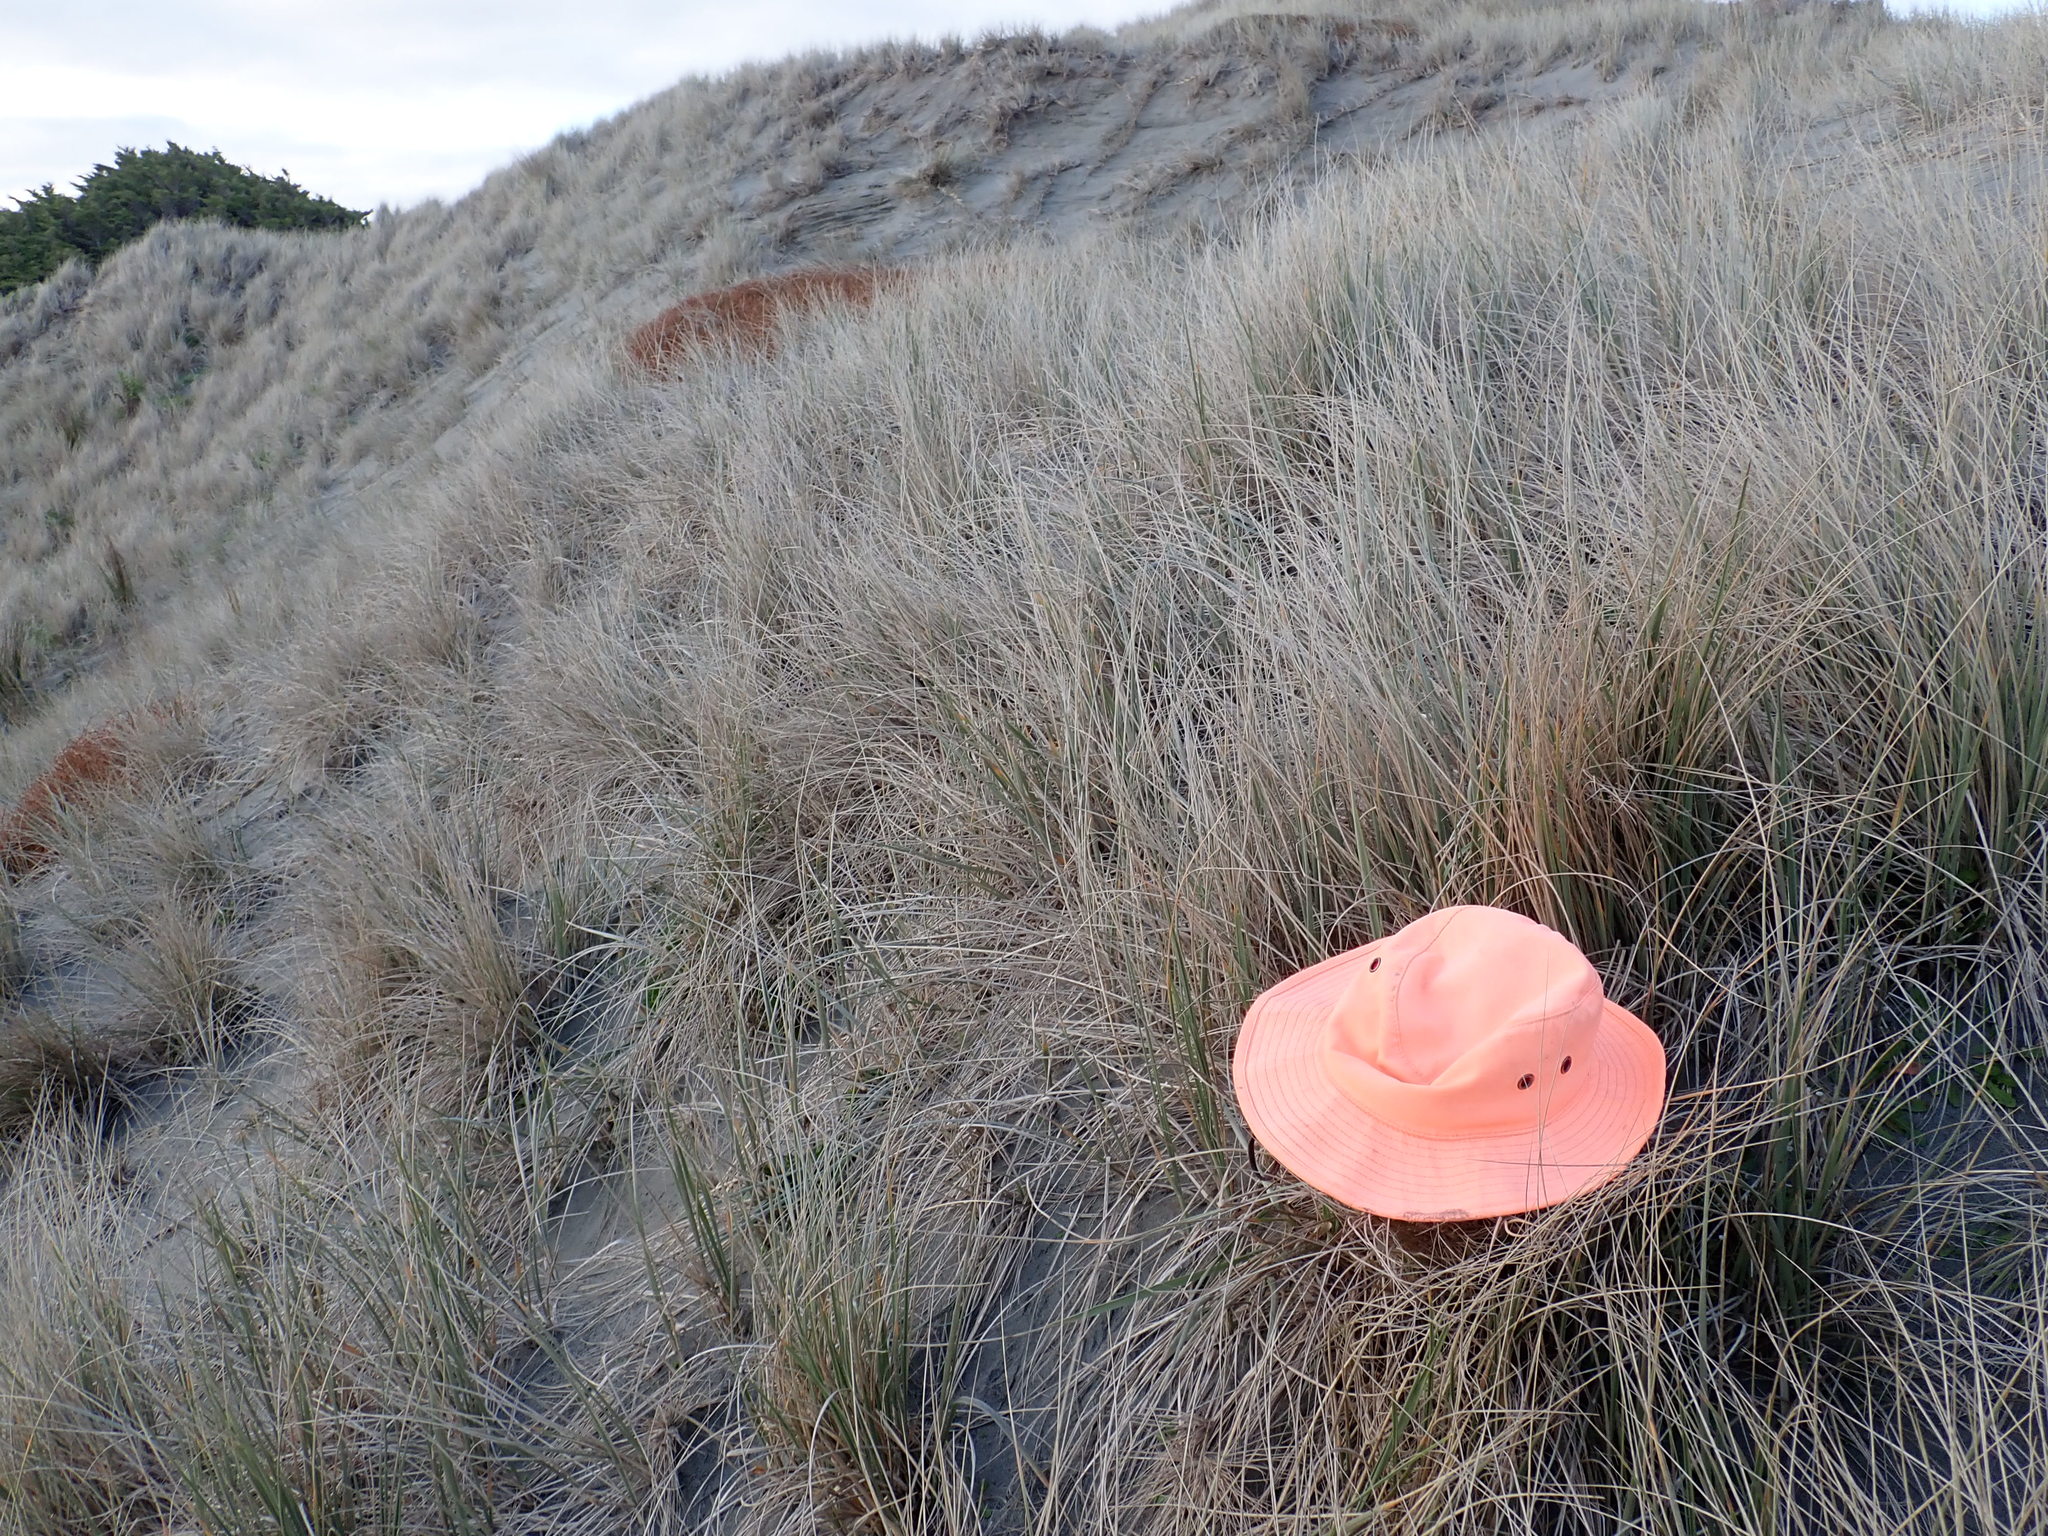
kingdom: Animalia
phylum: Arthropoda
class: Arachnida
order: Araneae
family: Thomisidae
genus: Sidymella
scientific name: Sidymella trapezia
